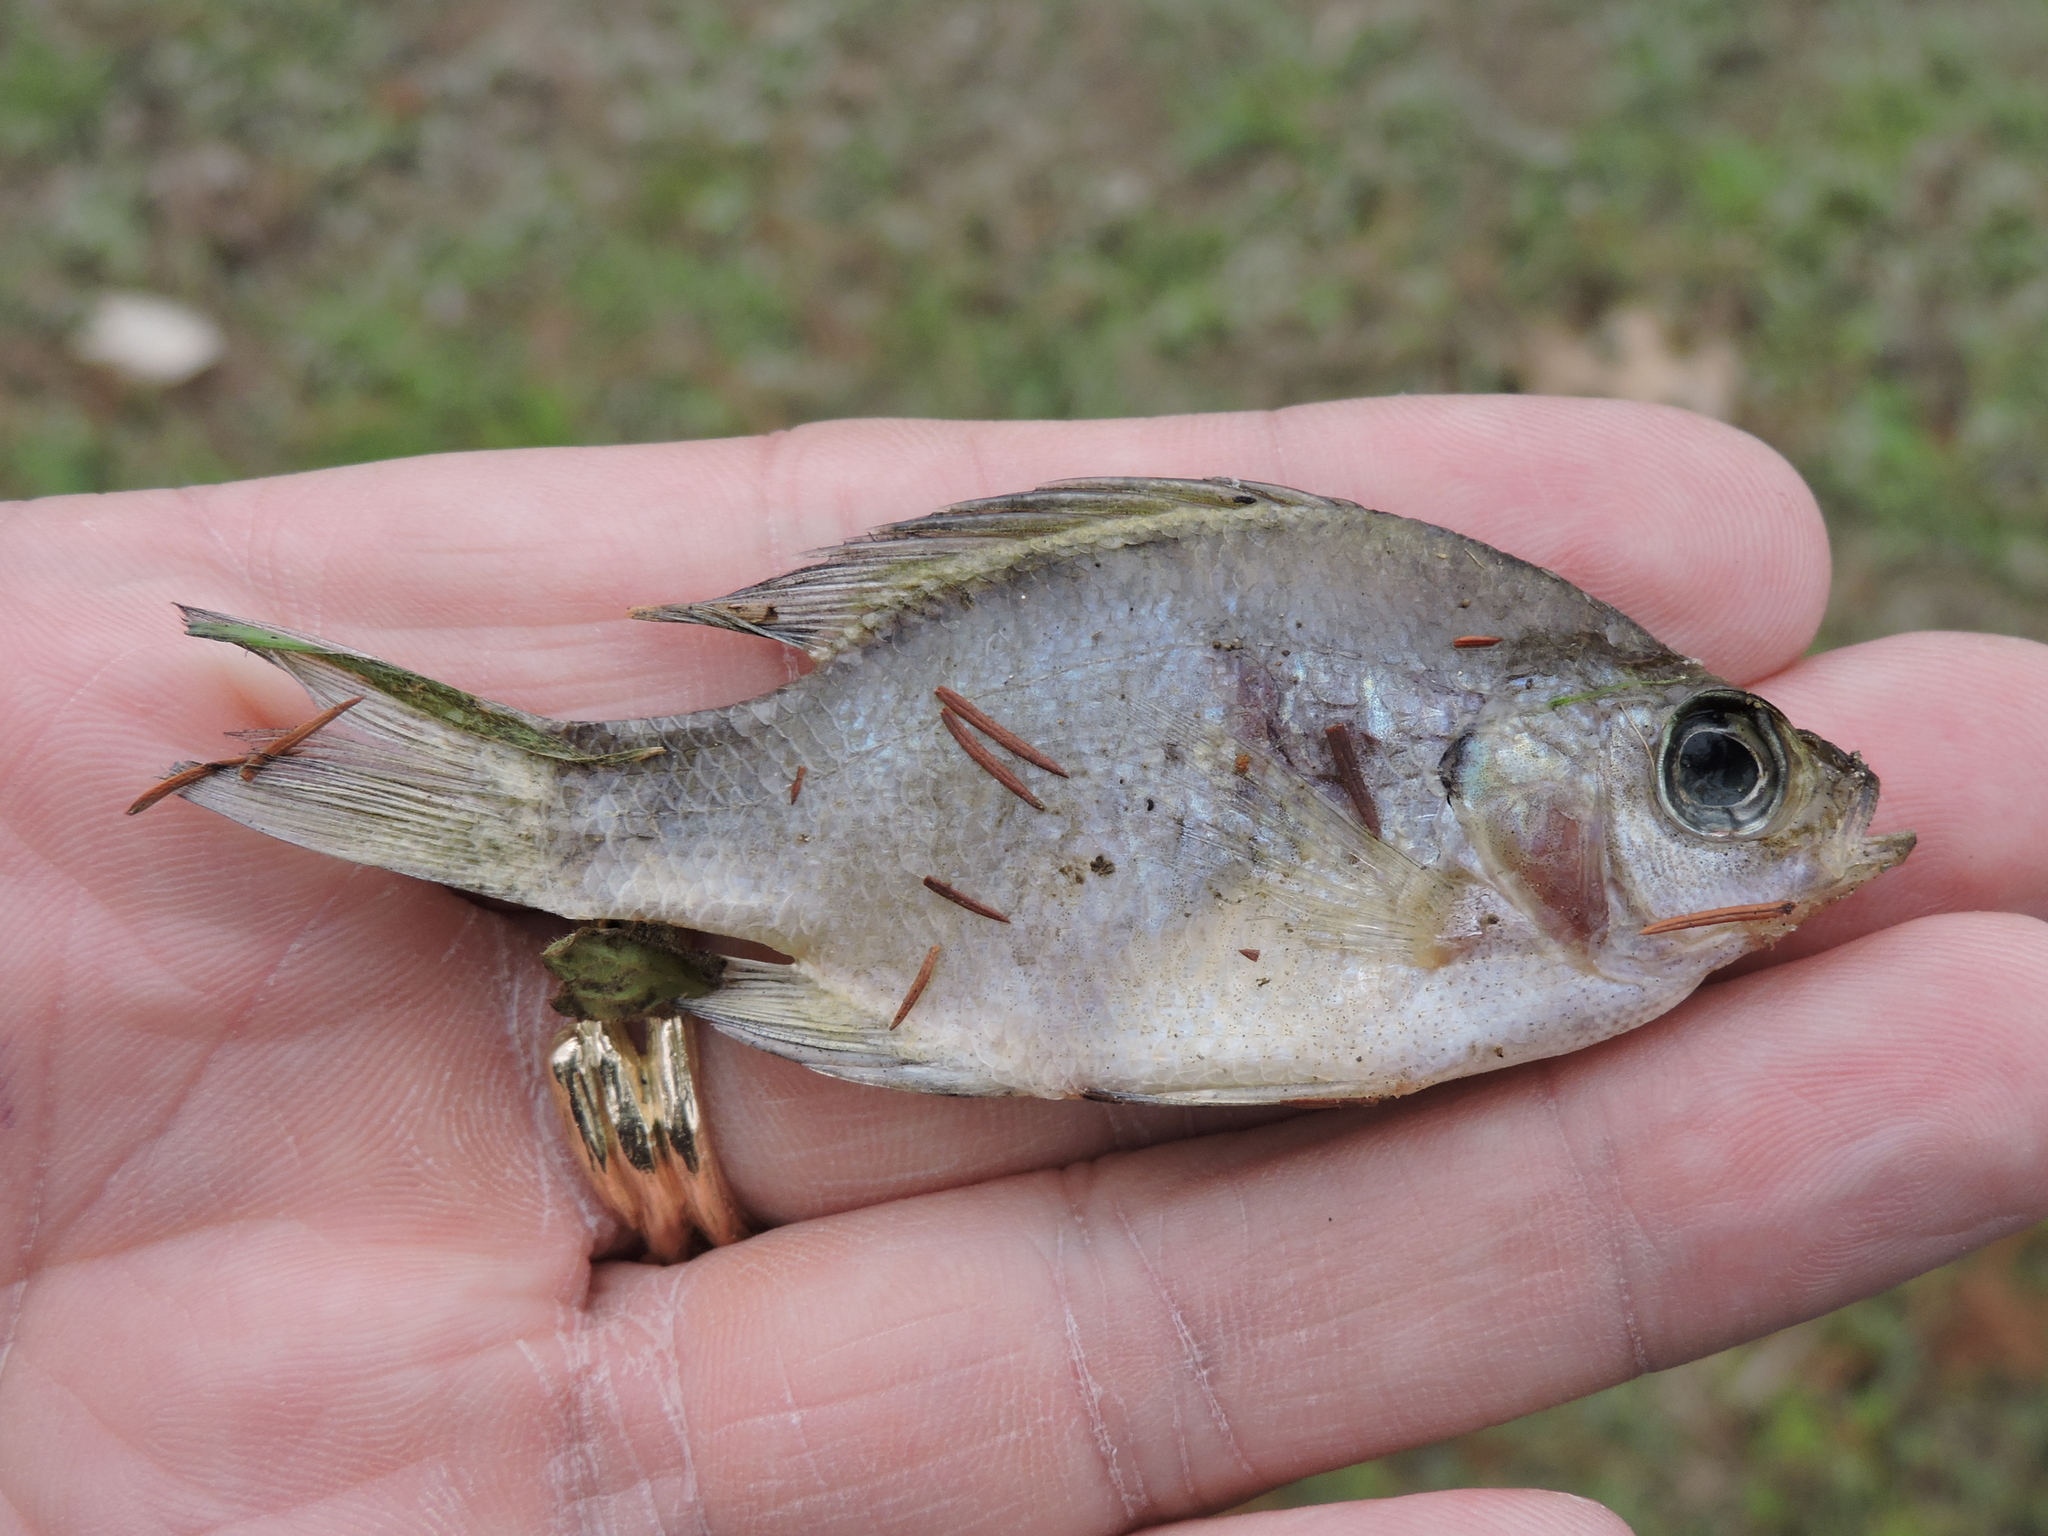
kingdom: Animalia
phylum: Chordata
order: Perciformes
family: Centrarchidae
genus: Lepomis
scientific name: Lepomis macrochirus
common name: Bluegill
